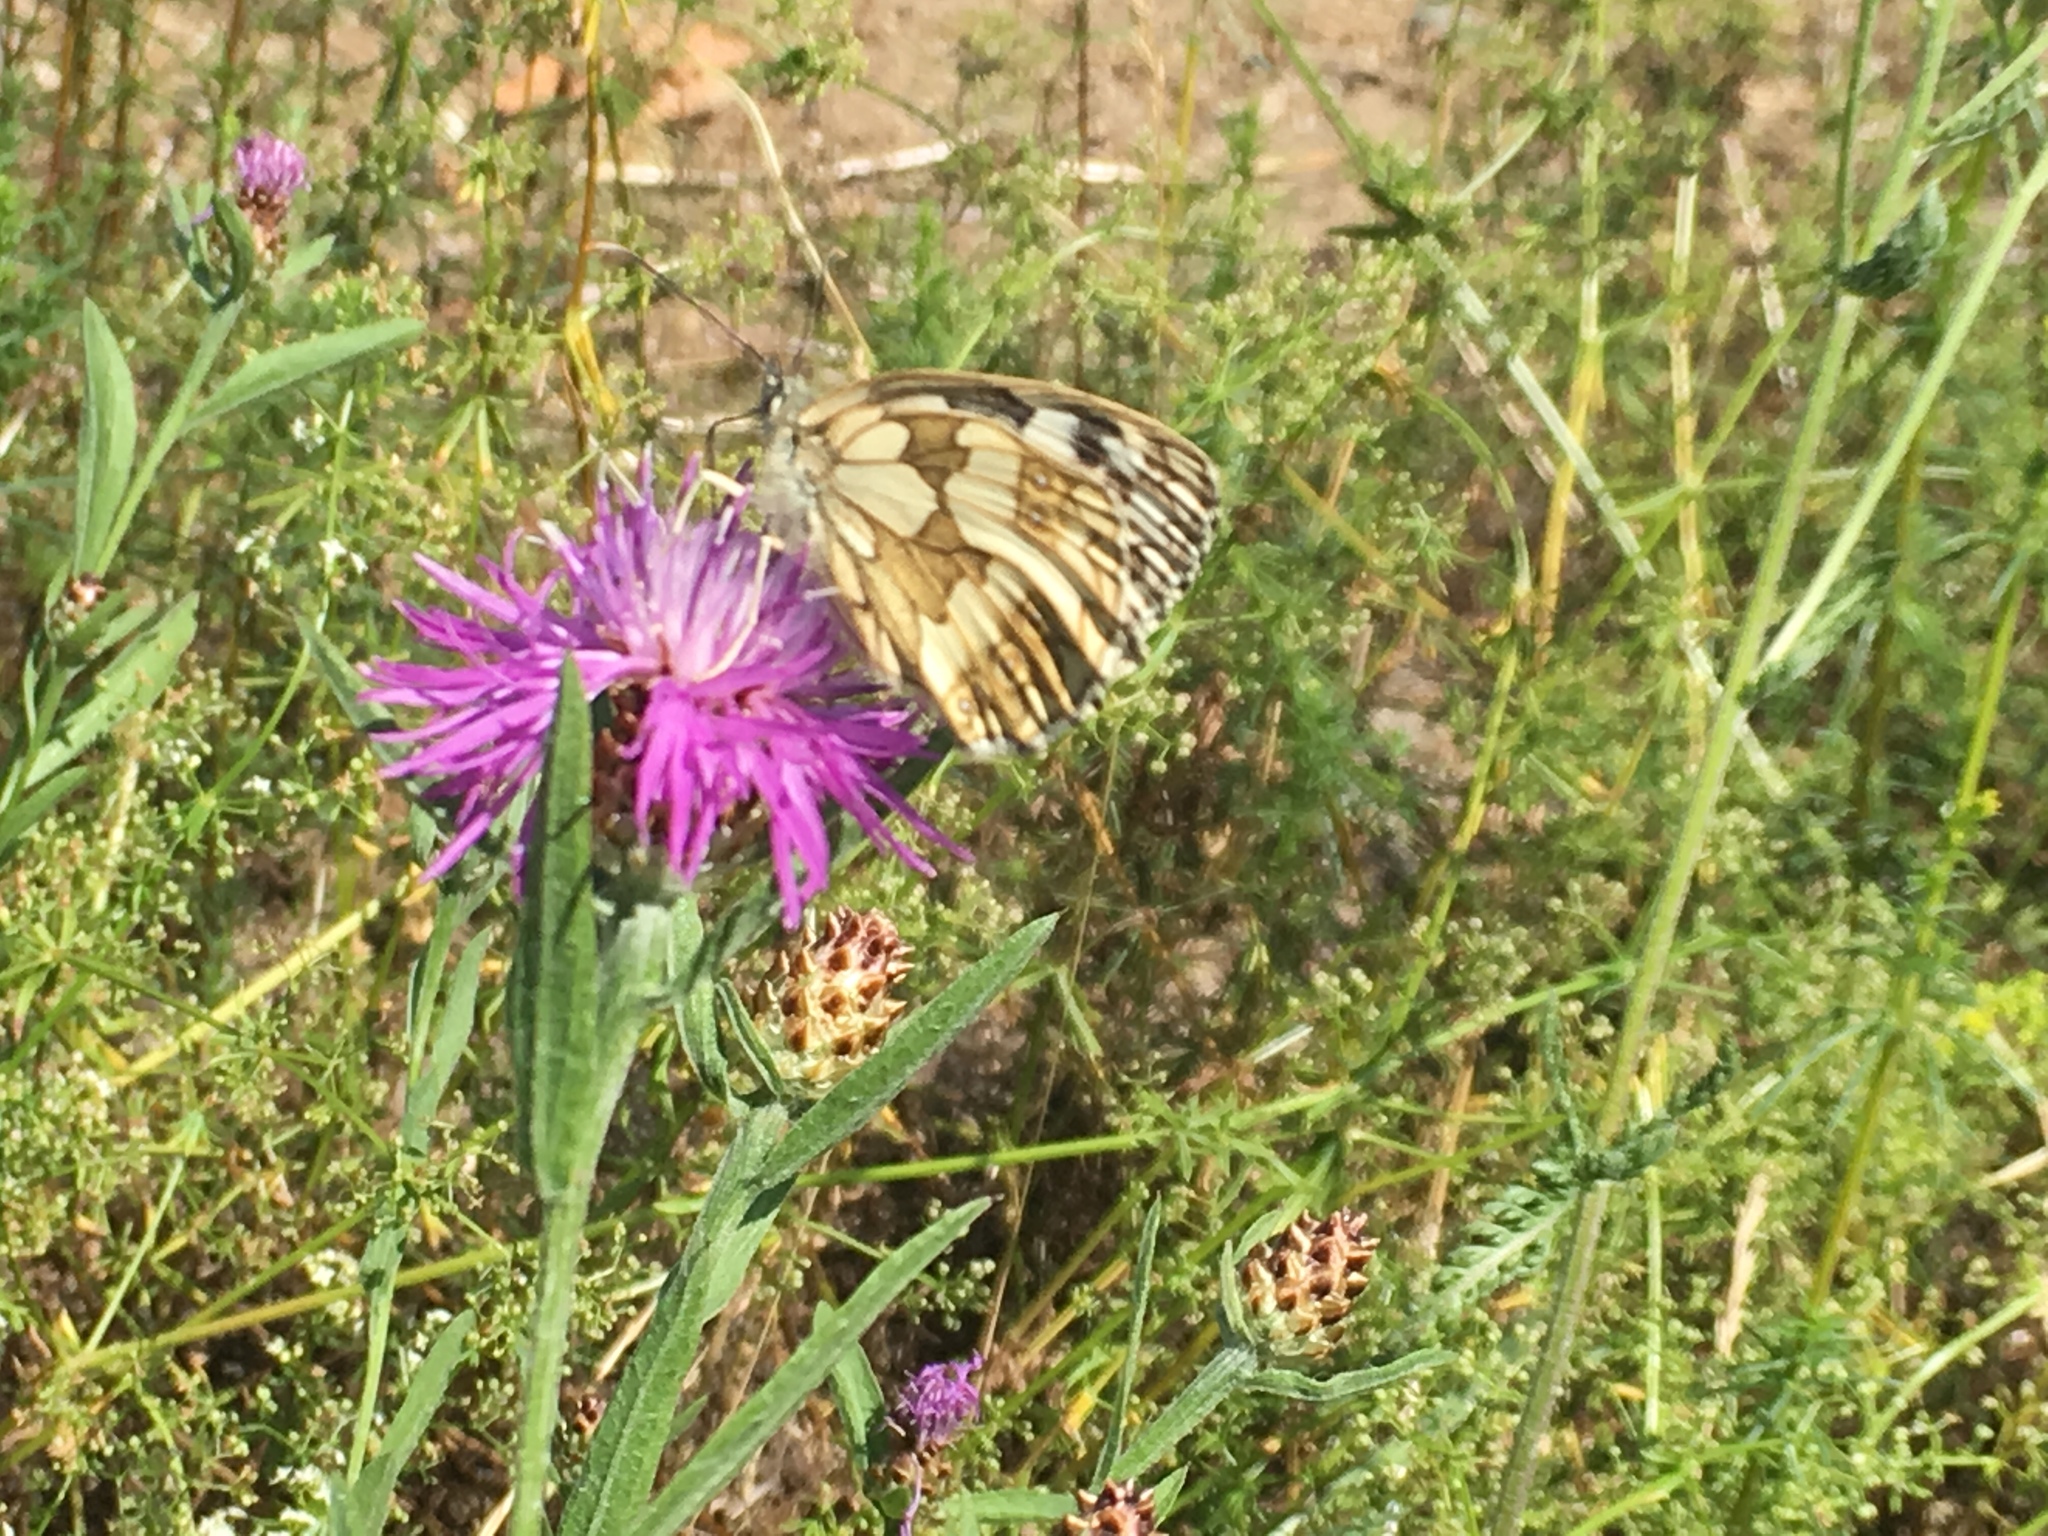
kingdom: Animalia
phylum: Arthropoda
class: Insecta
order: Lepidoptera
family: Nymphalidae
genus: Melanargia
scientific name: Melanargia galathea
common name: Marbled white
